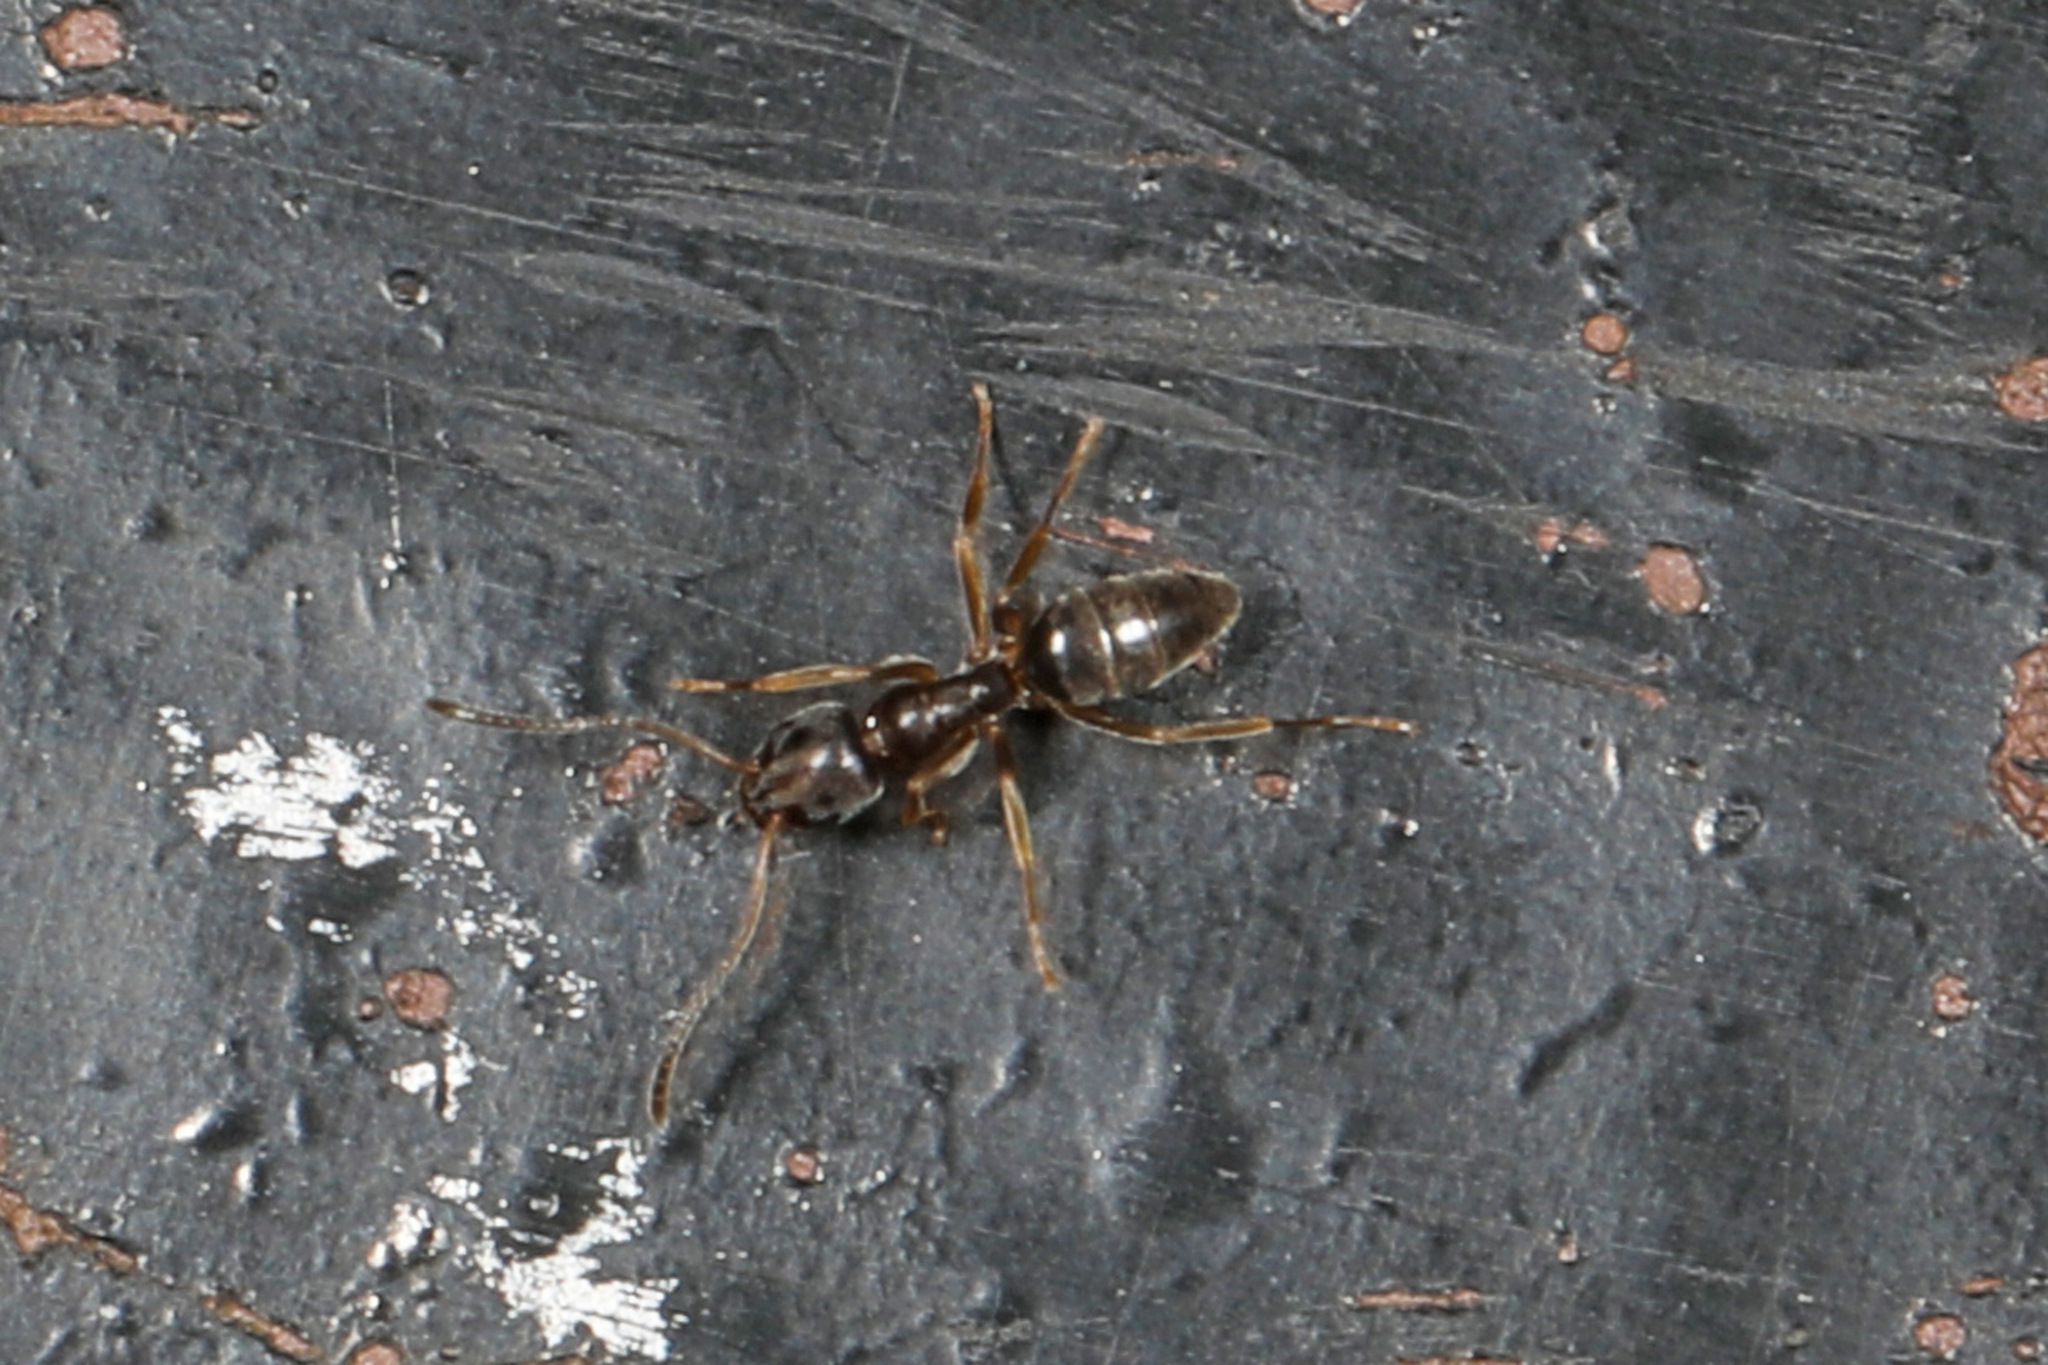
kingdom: Animalia
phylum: Arthropoda
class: Insecta
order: Hymenoptera
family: Formicidae
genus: Tapinoma
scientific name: Tapinoma sessile
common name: Odorous house ant
